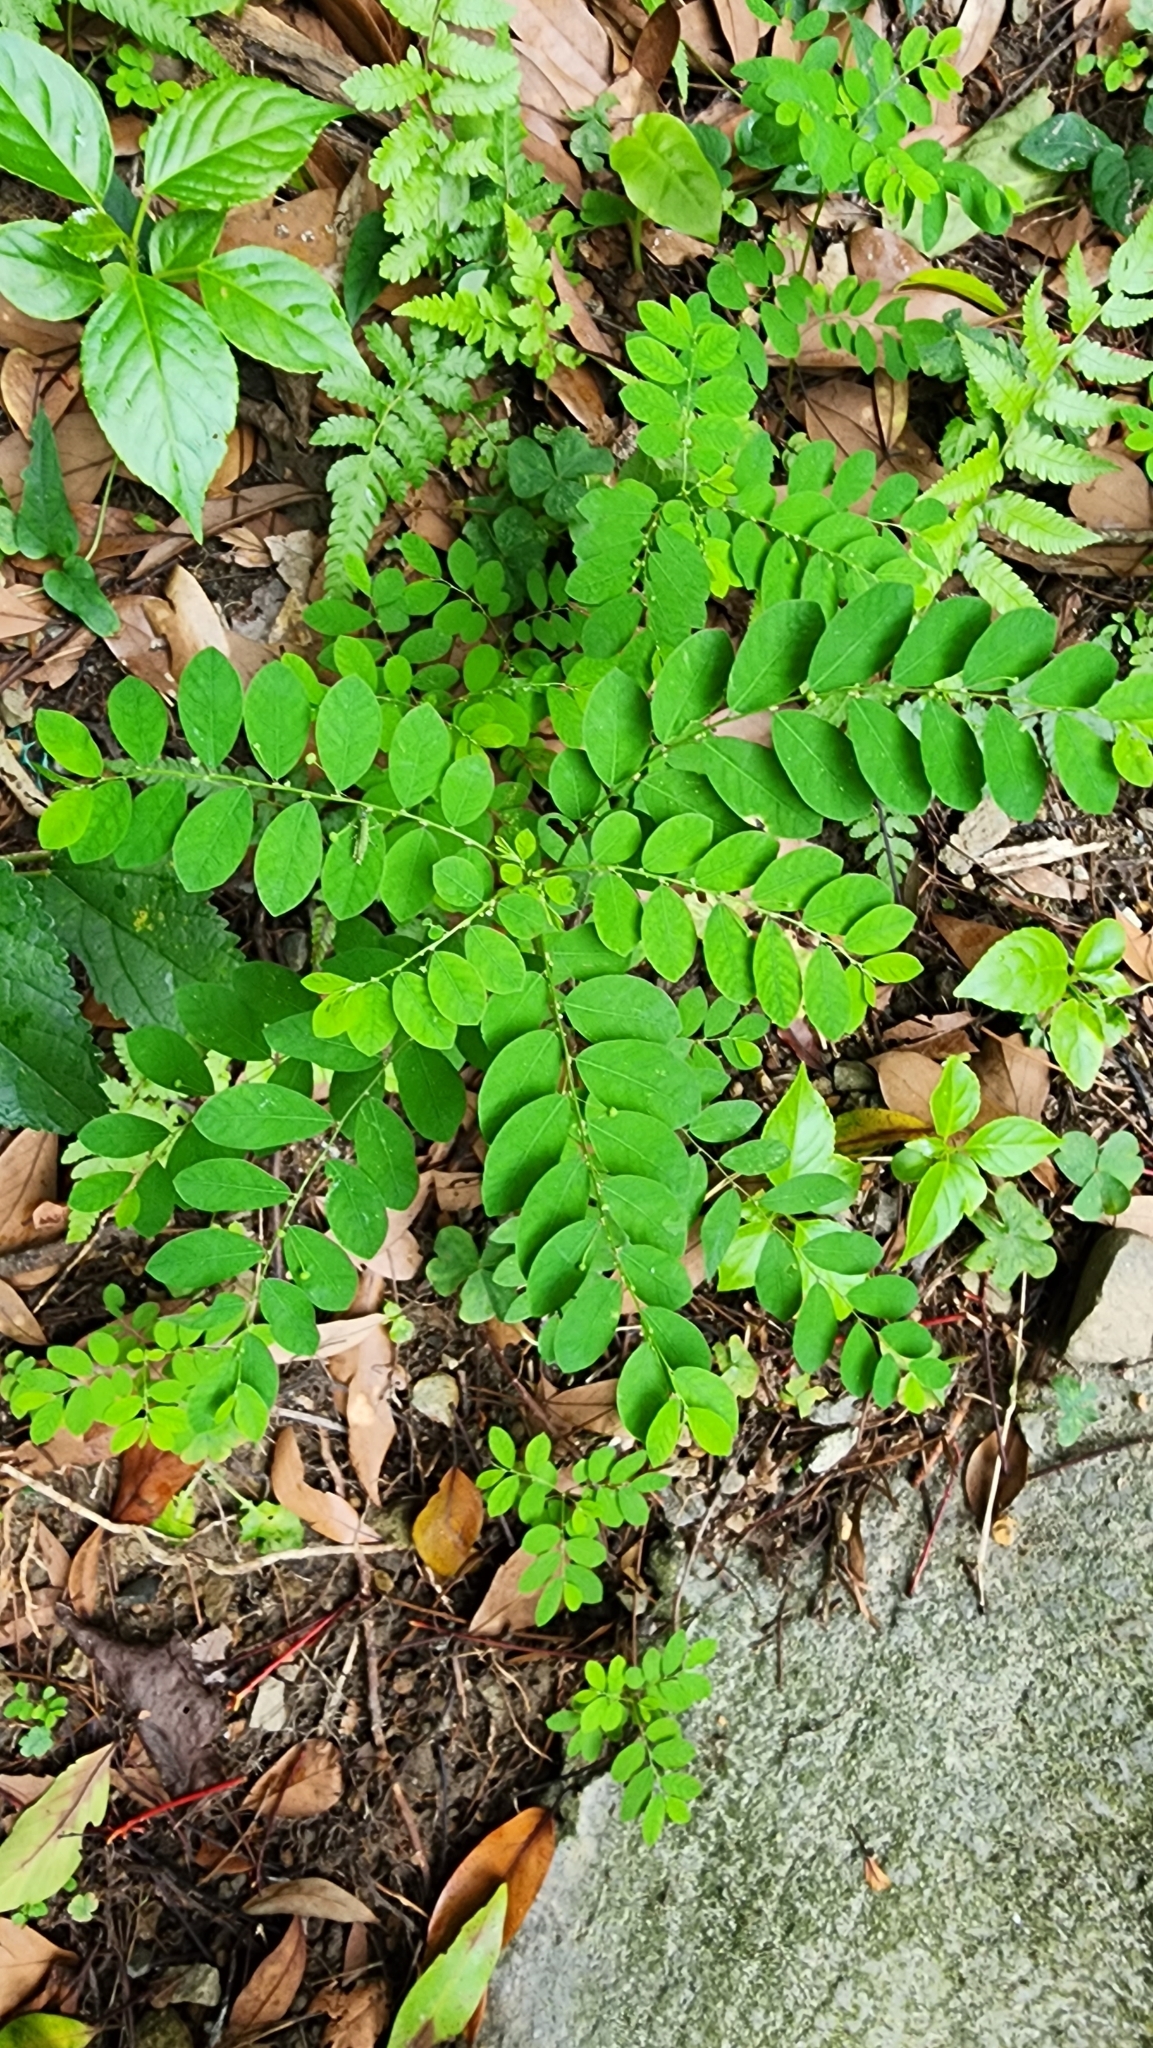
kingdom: Plantae
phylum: Tracheophyta
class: Magnoliopsida
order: Malpighiales
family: Phyllanthaceae
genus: Phyllanthus
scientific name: Phyllanthus tenellus
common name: Mascarene island leaf-flower
